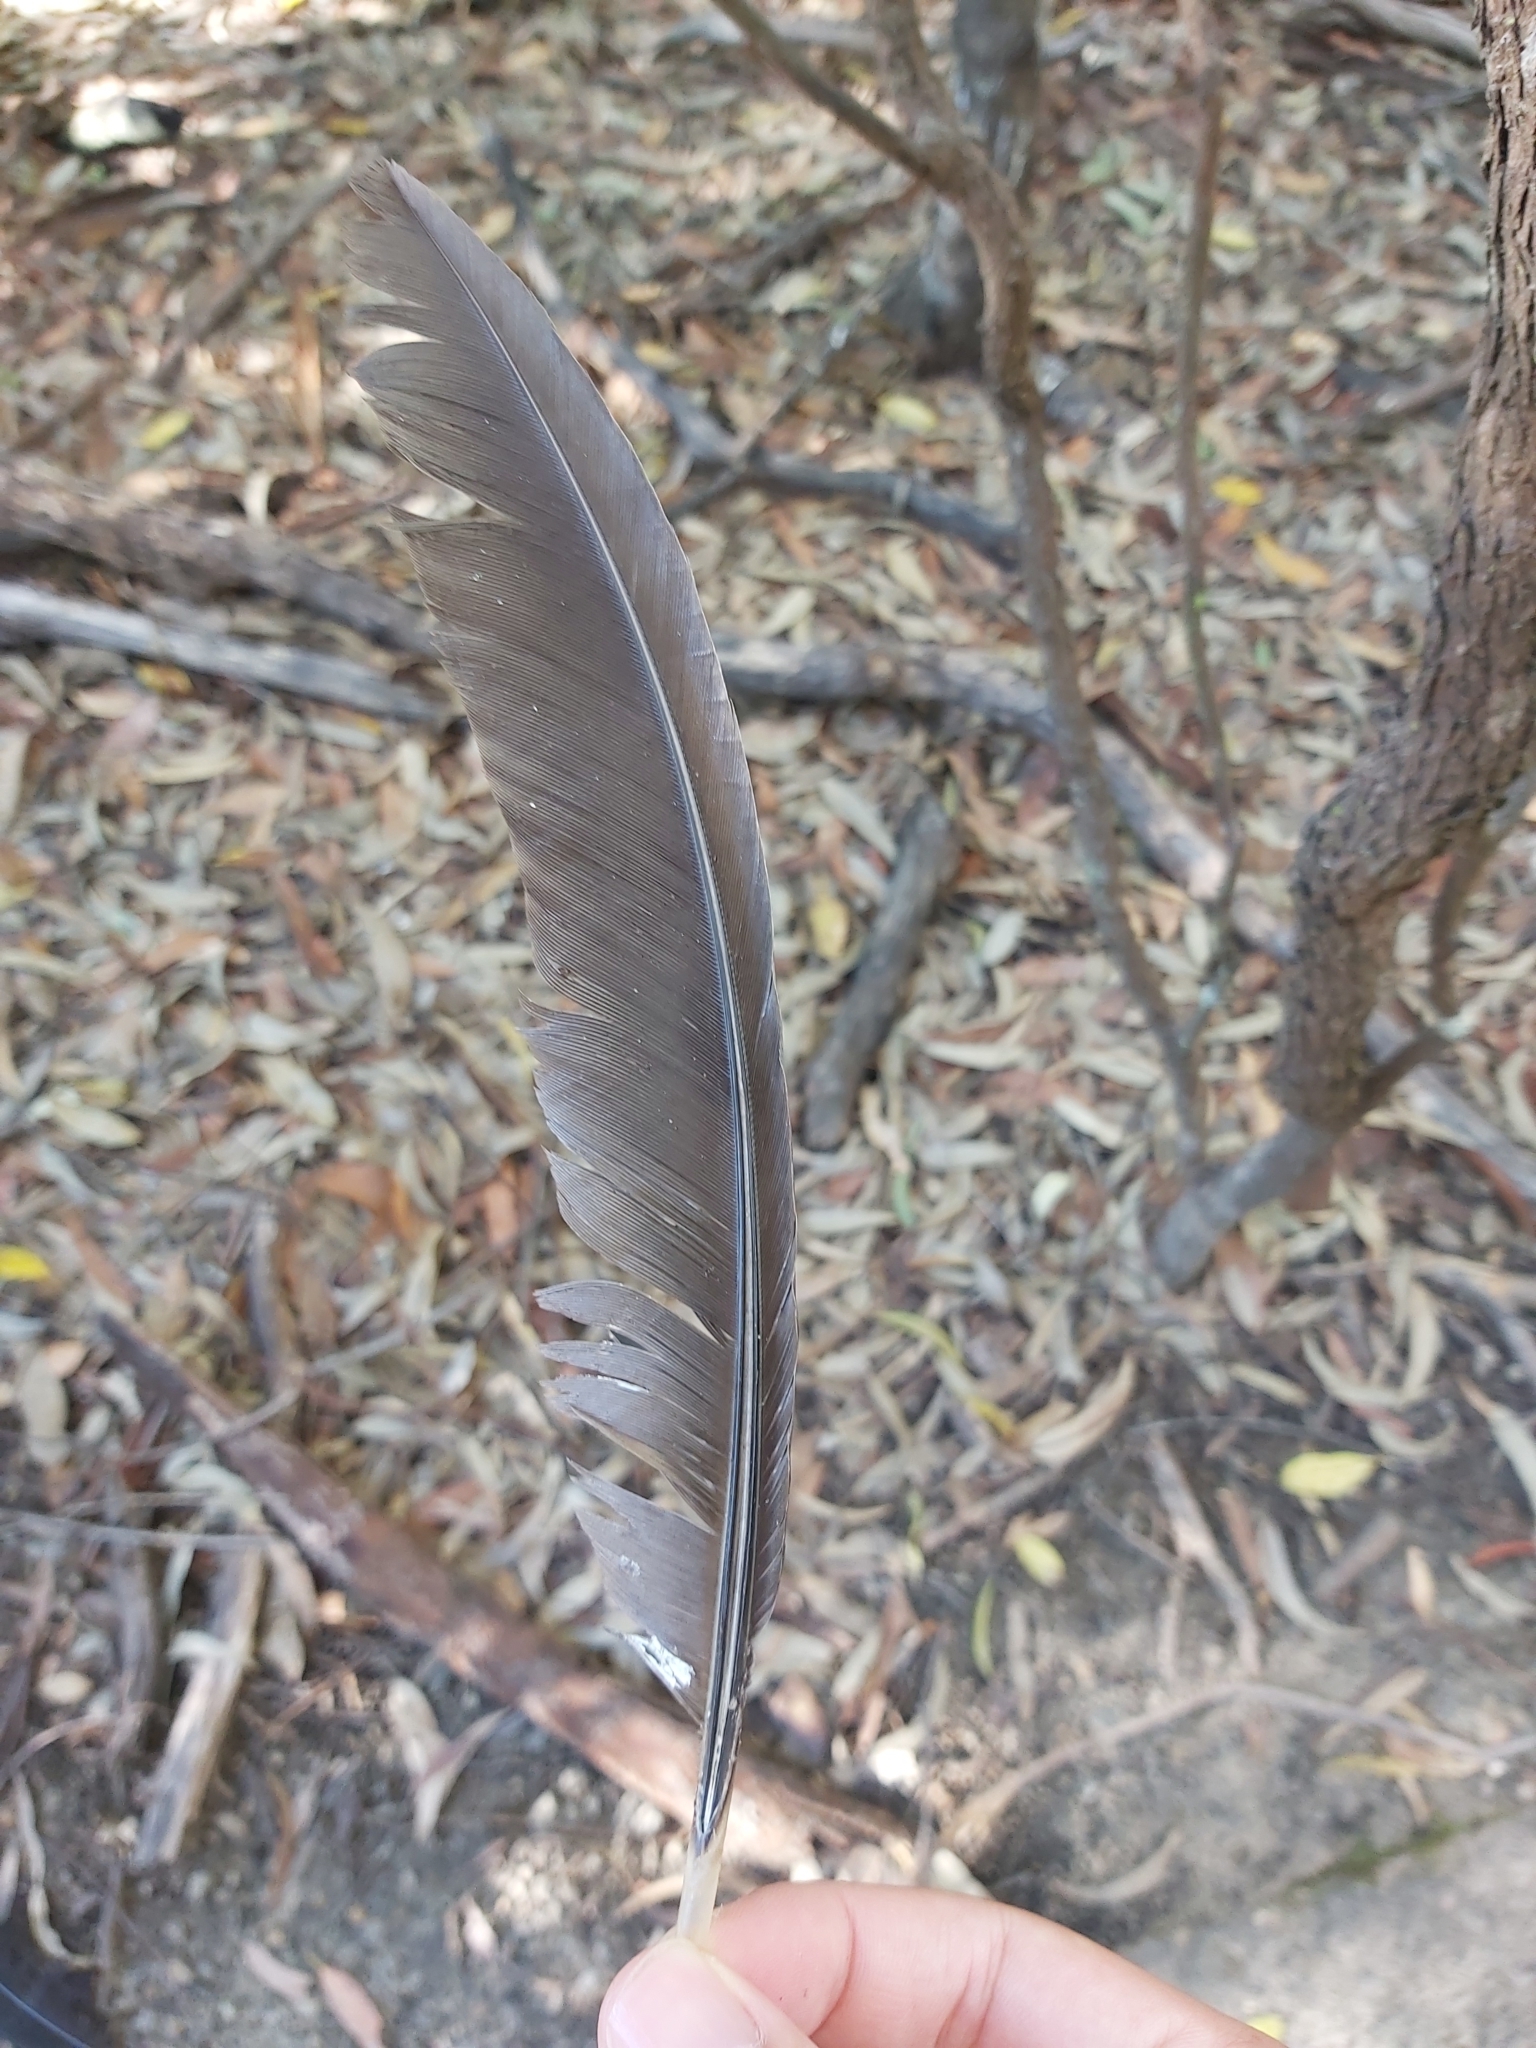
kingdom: Animalia
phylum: Chordata
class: Aves
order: Galliformes
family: Megapodiidae
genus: Alectura
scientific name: Alectura lathami
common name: Australian brushturkey
